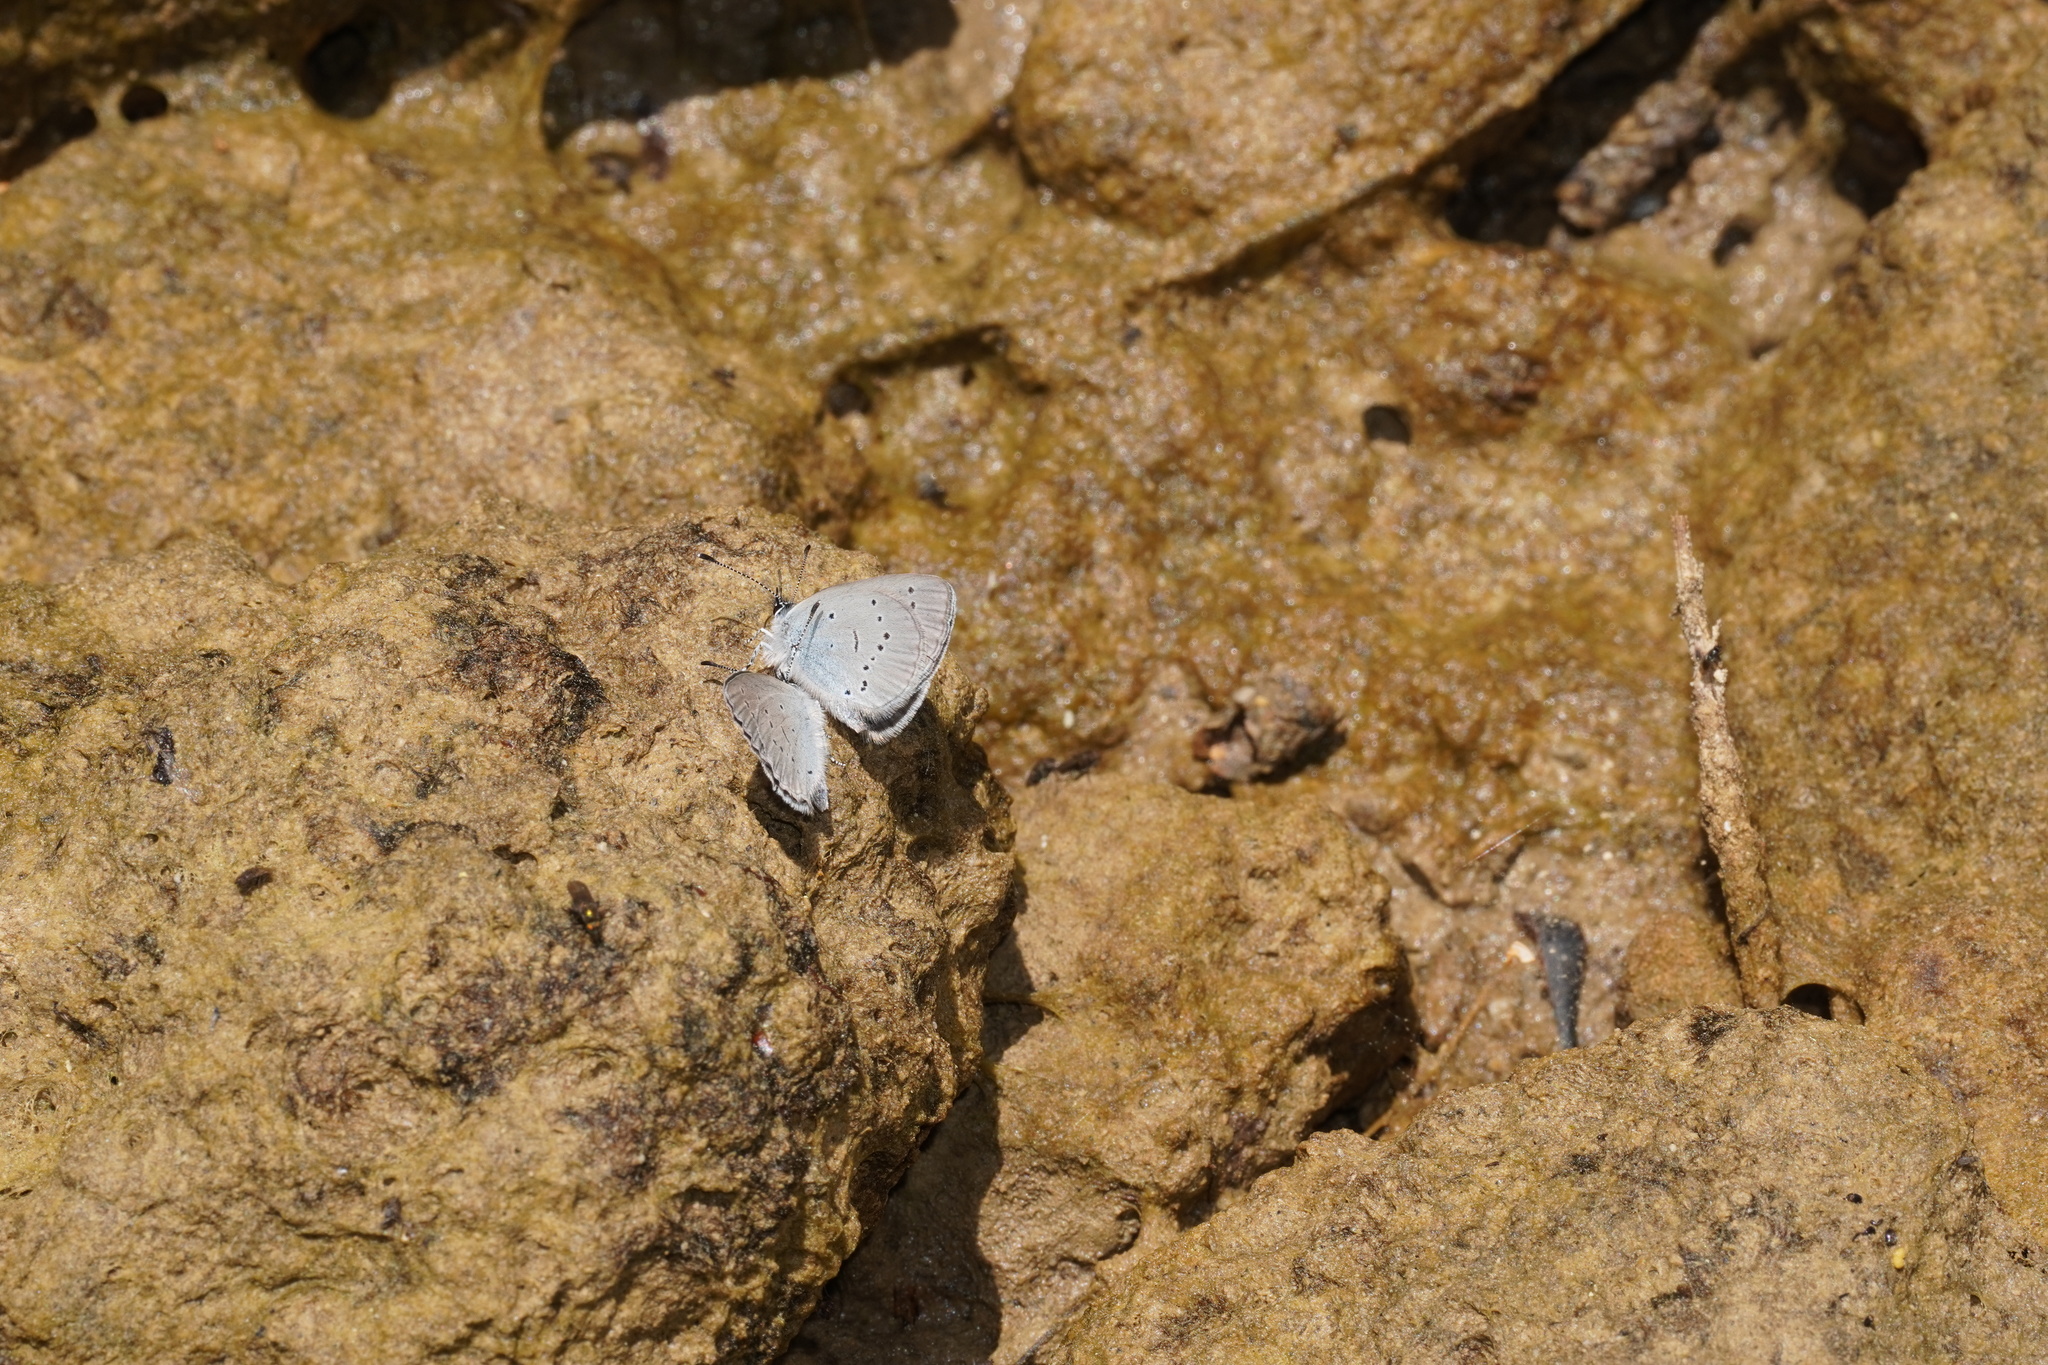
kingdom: Animalia
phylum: Arthropoda
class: Insecta
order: Lepidoptera
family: Lycaenidae
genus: Cupido
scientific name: Cupido lorquinii
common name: Lorquin’s blue
